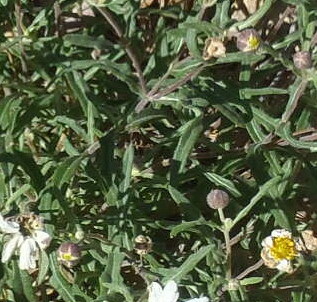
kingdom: Plantae
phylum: Tracheophyta
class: Magnoliopsida
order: Asterales
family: Asteraceae
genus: Melampodium
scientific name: Melampodium leucanthum
